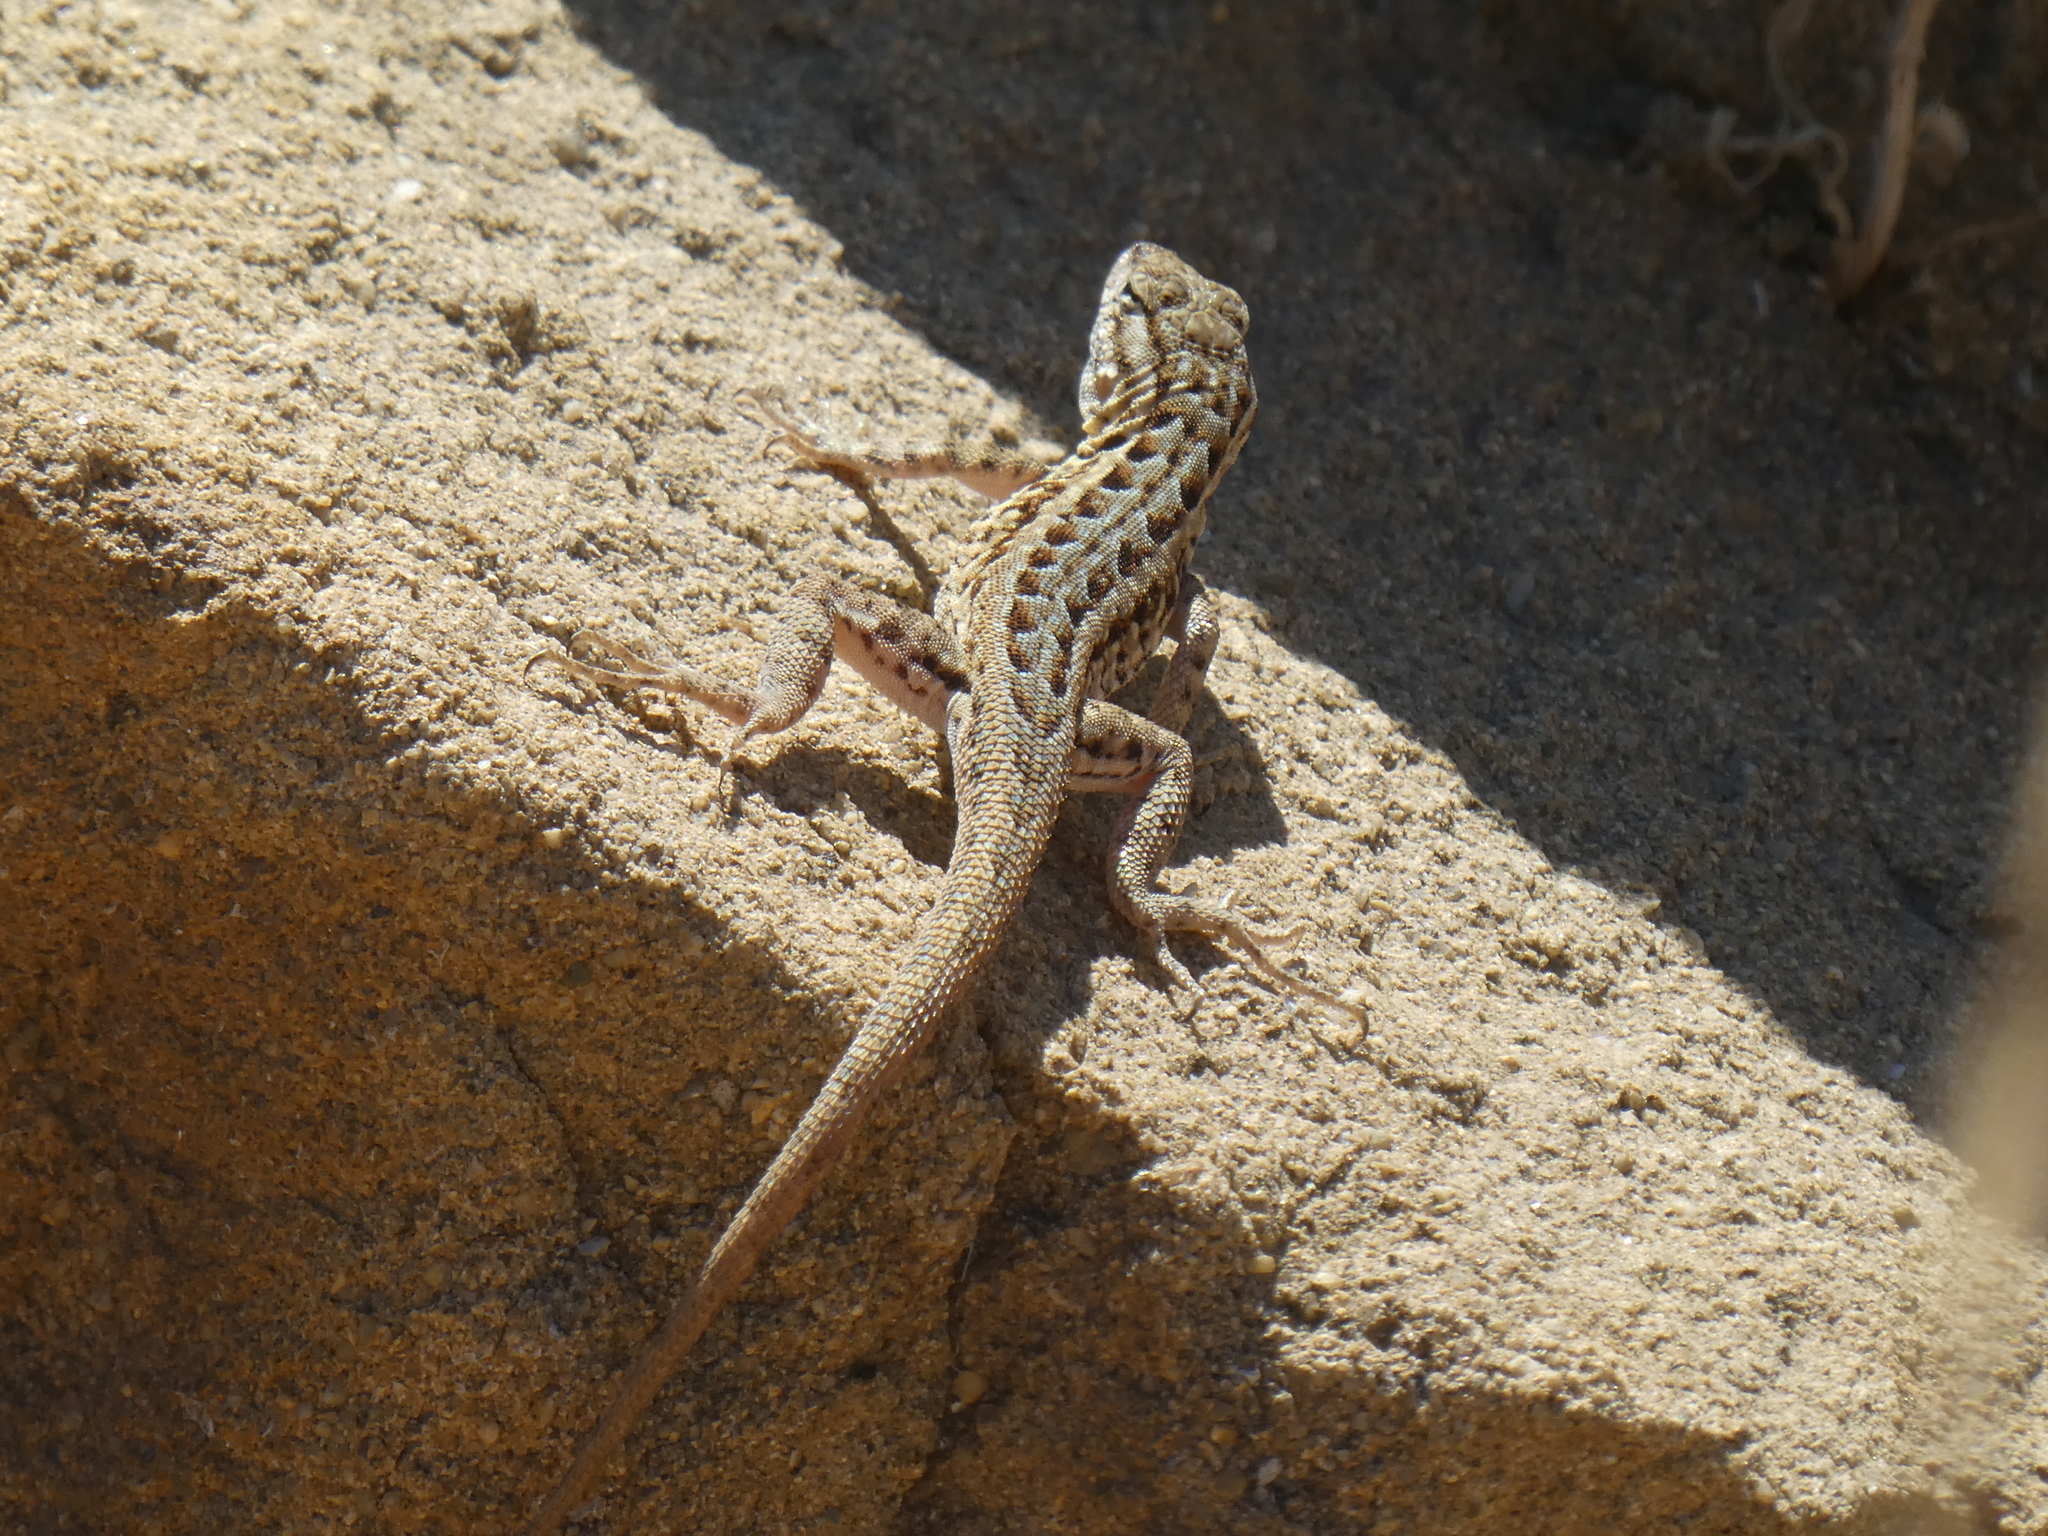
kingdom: Animalia
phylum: Chordata
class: Squamata
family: Phrynosomatidae
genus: Uta
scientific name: Uta stansburiana
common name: Side-blotched lizard
